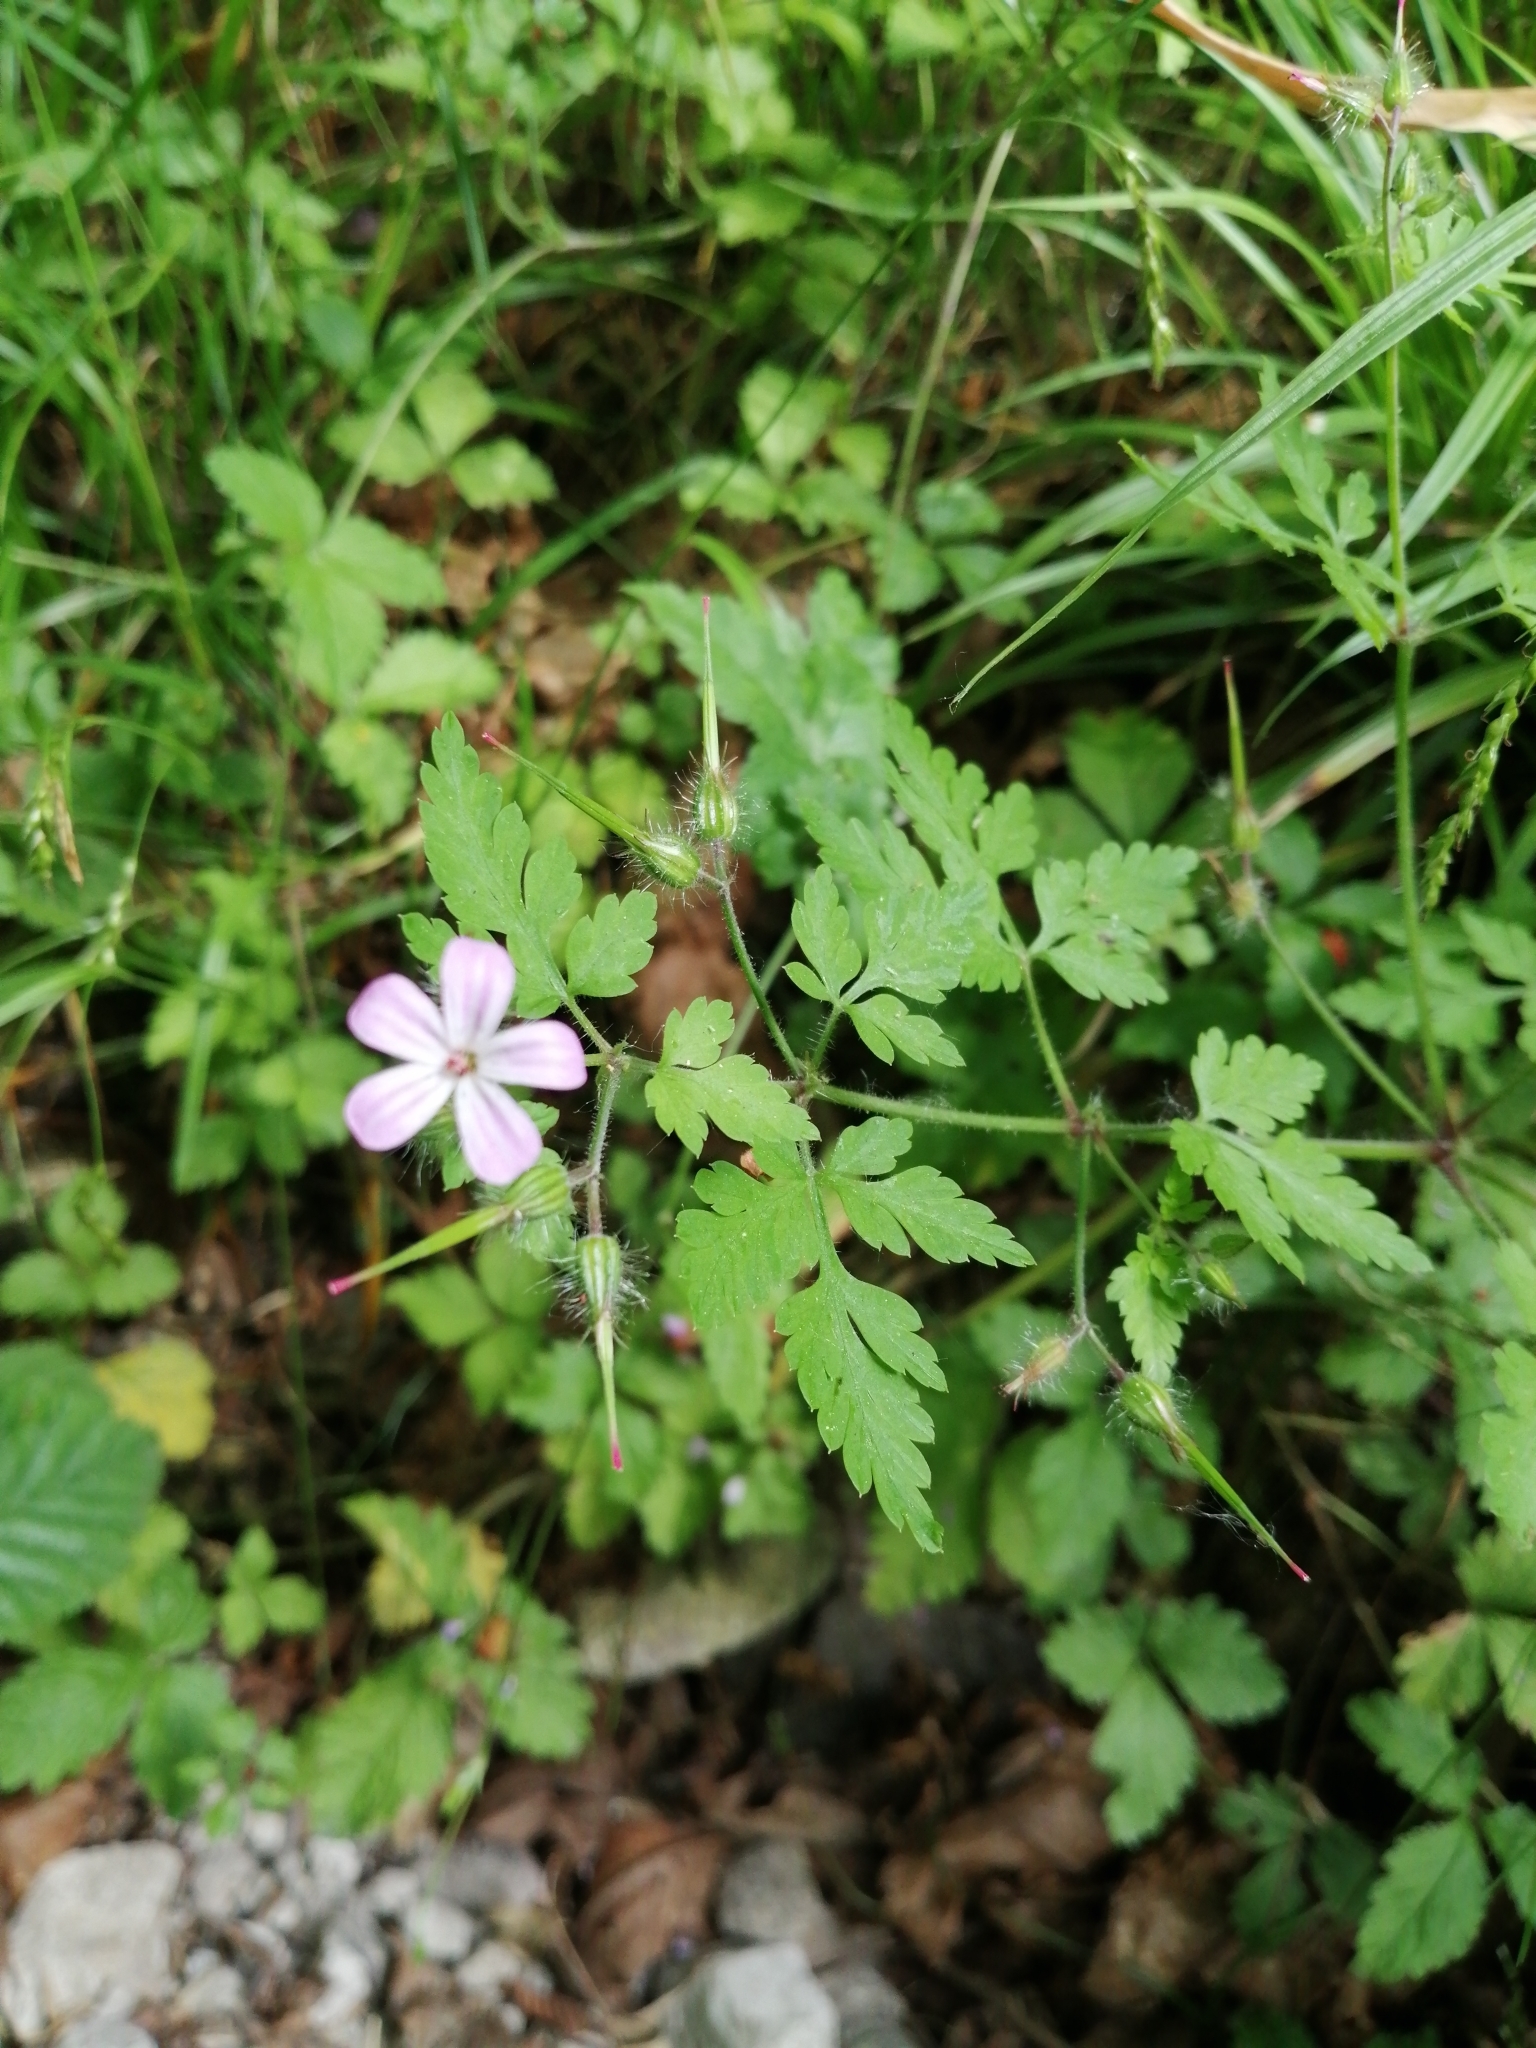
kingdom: Plantae
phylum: Tracheophyta
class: Magnoliopsida
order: Geraniales
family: Geraniaceae
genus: Geranium
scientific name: Geranium robertianum
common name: Herb-robert
